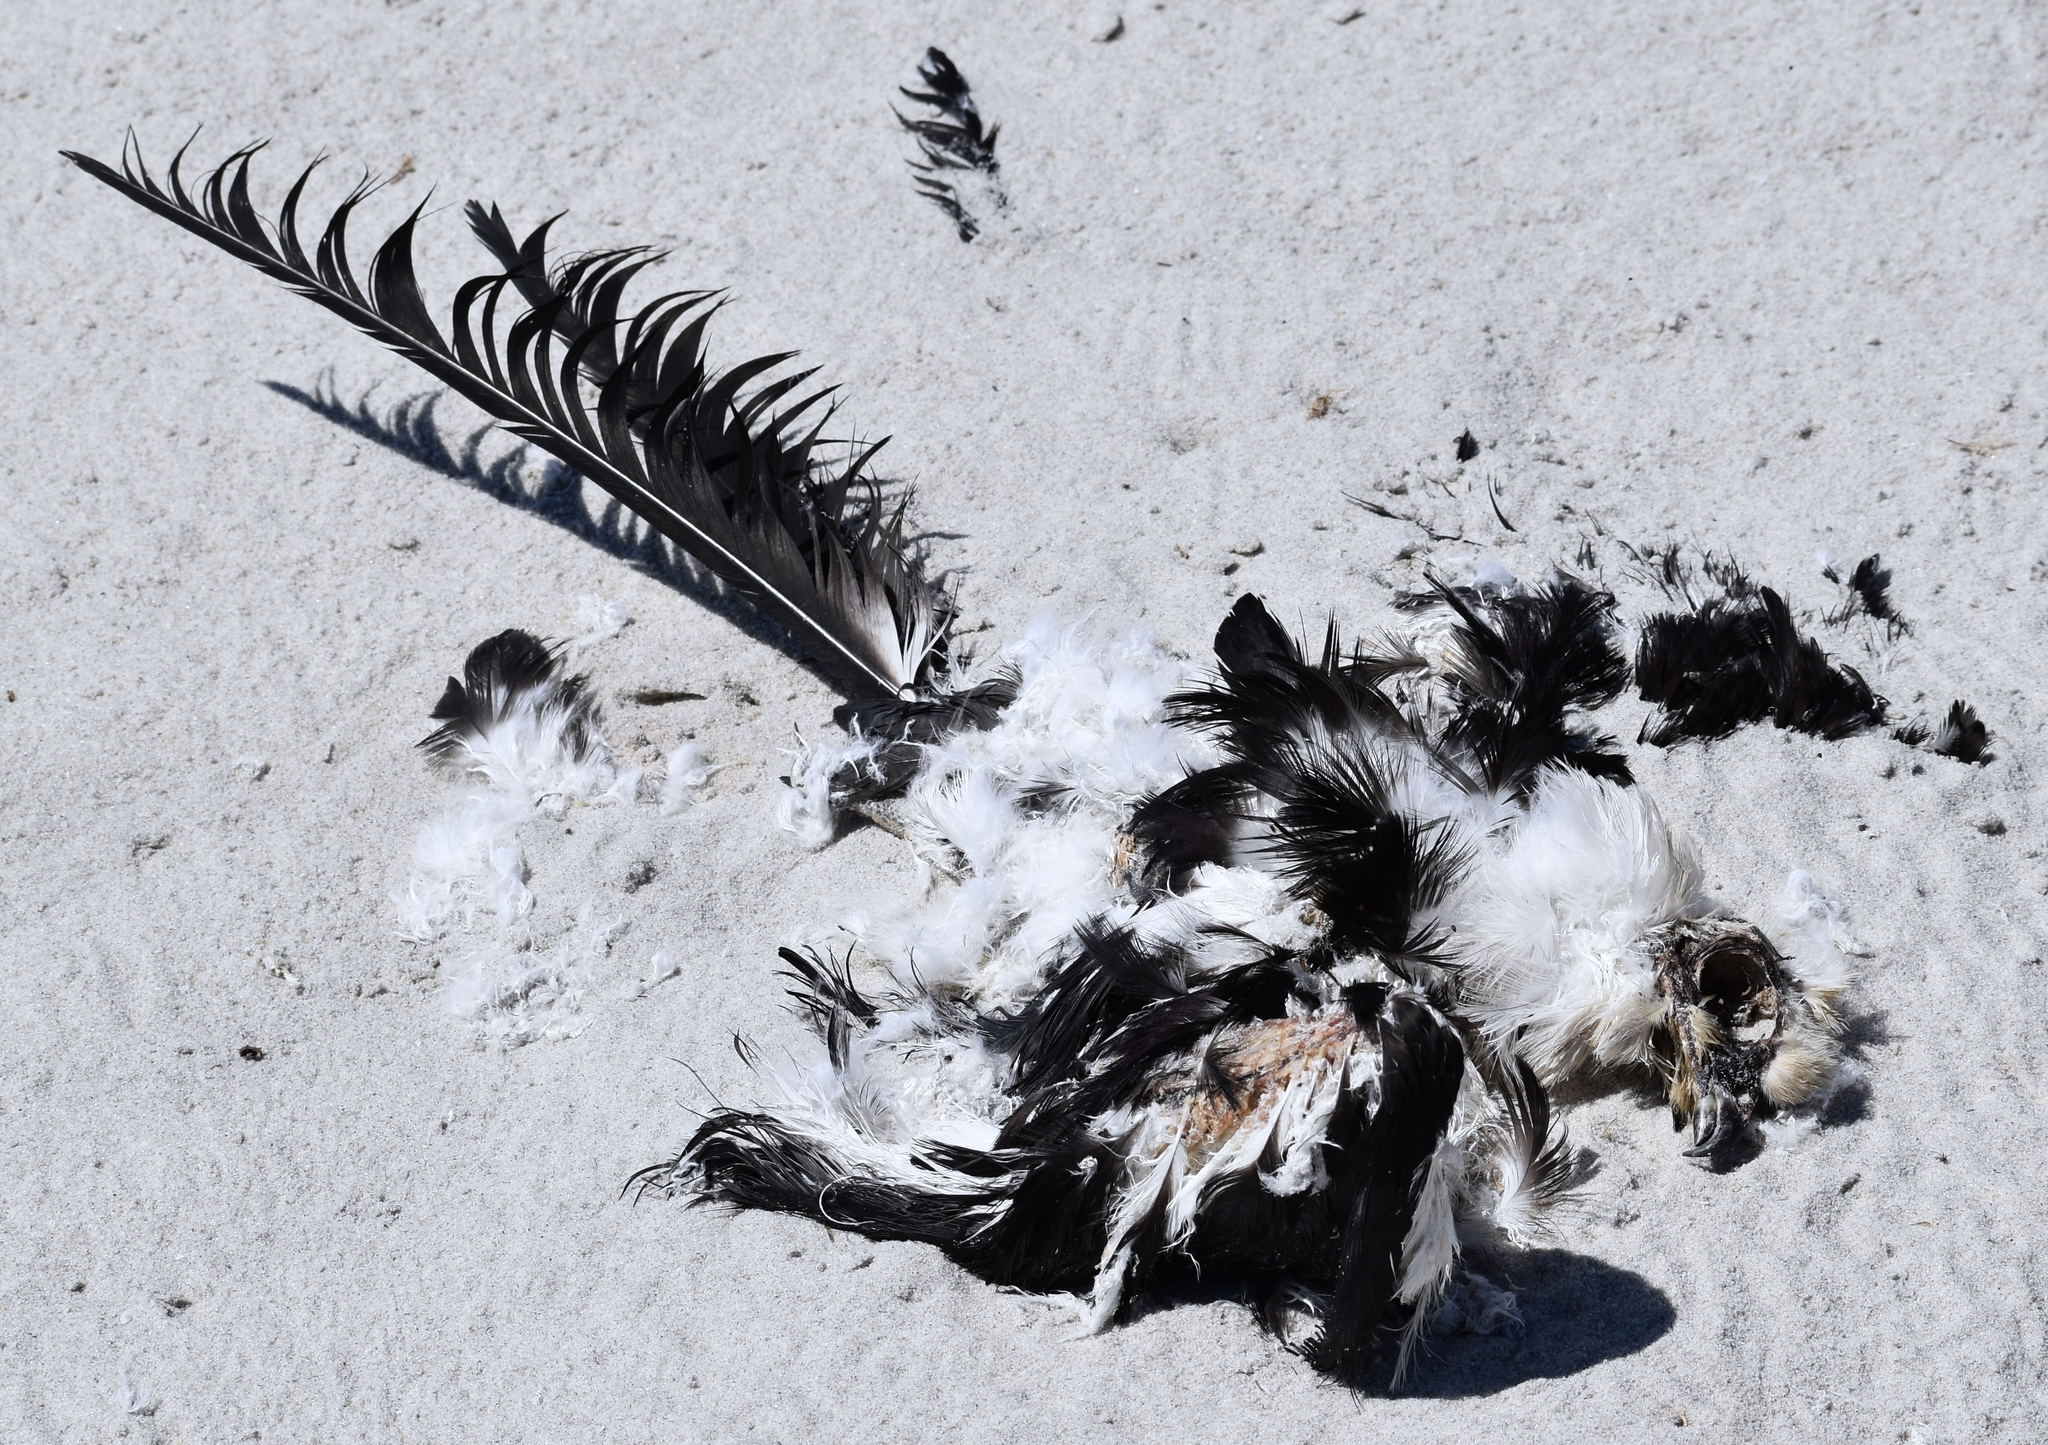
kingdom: Animalia
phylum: Chordata
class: Aves
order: Accipitriformes
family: Accipitridae
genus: Elanoides
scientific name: Elanoides forficatus
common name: Swallow-tailed kite
